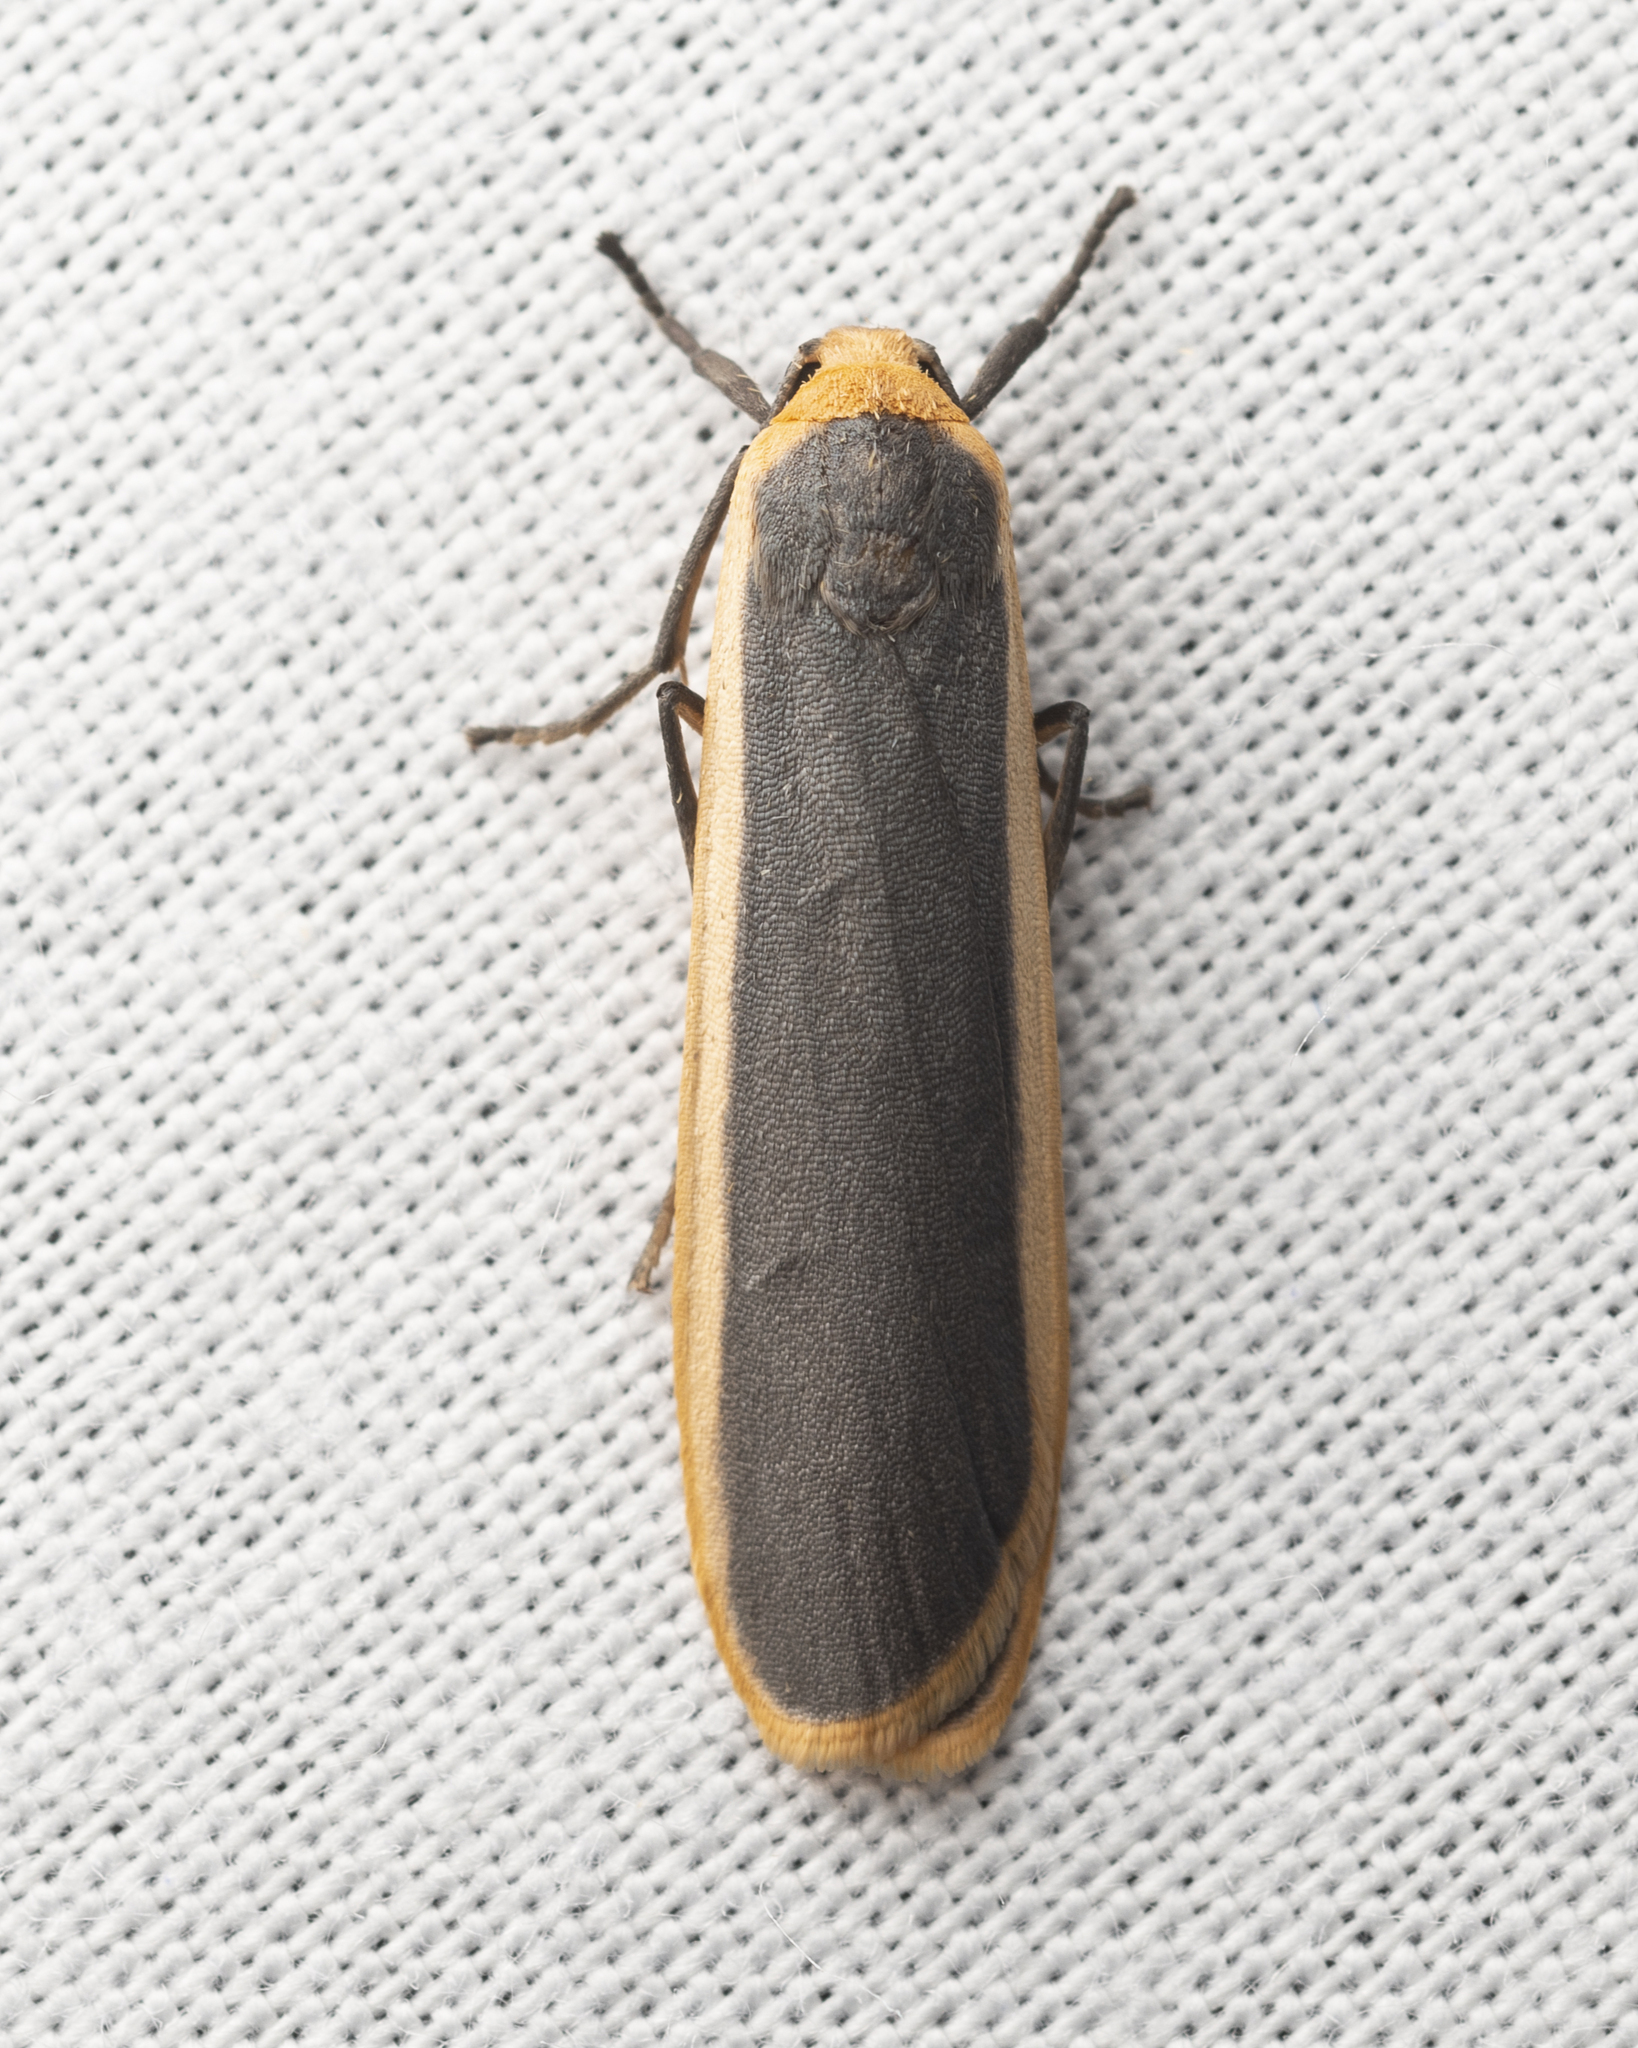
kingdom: Animalia
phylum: Arthropoda
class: Insecta
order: Lepidoptera
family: Erebidae
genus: Brunia
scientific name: Brunia antica
